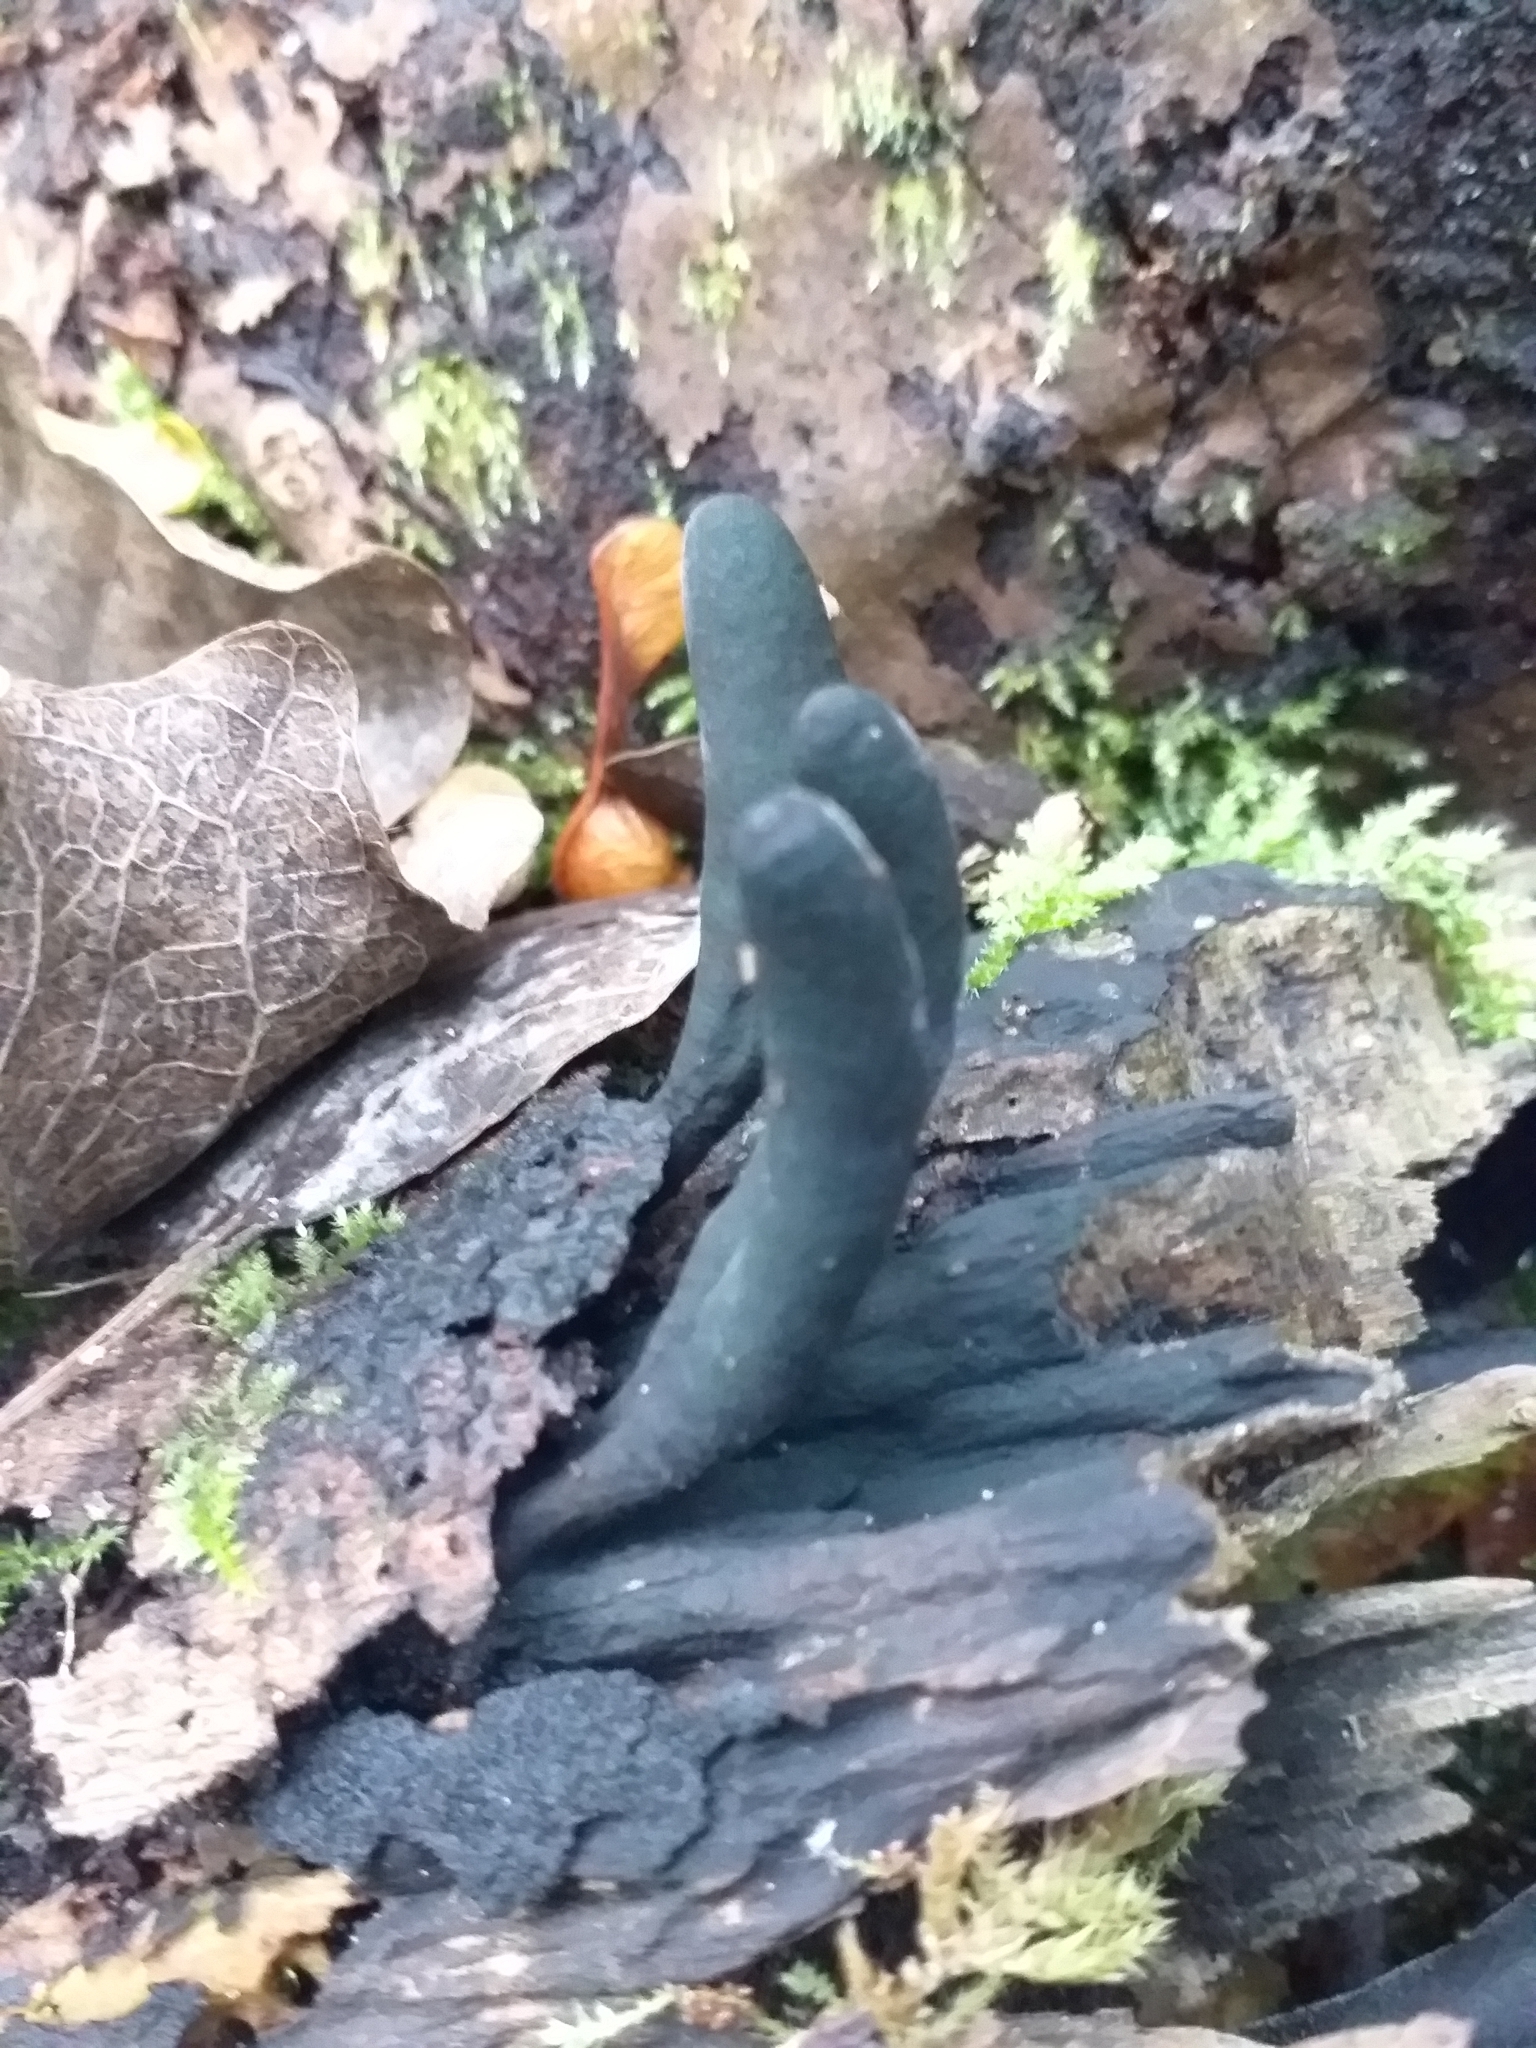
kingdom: Fungi
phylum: Ascomycota
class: Sordariomycetes
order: Xylariales
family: Xylariaceae
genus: Xylaria
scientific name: Xylaria polymorpha
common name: Dead man's fingers
